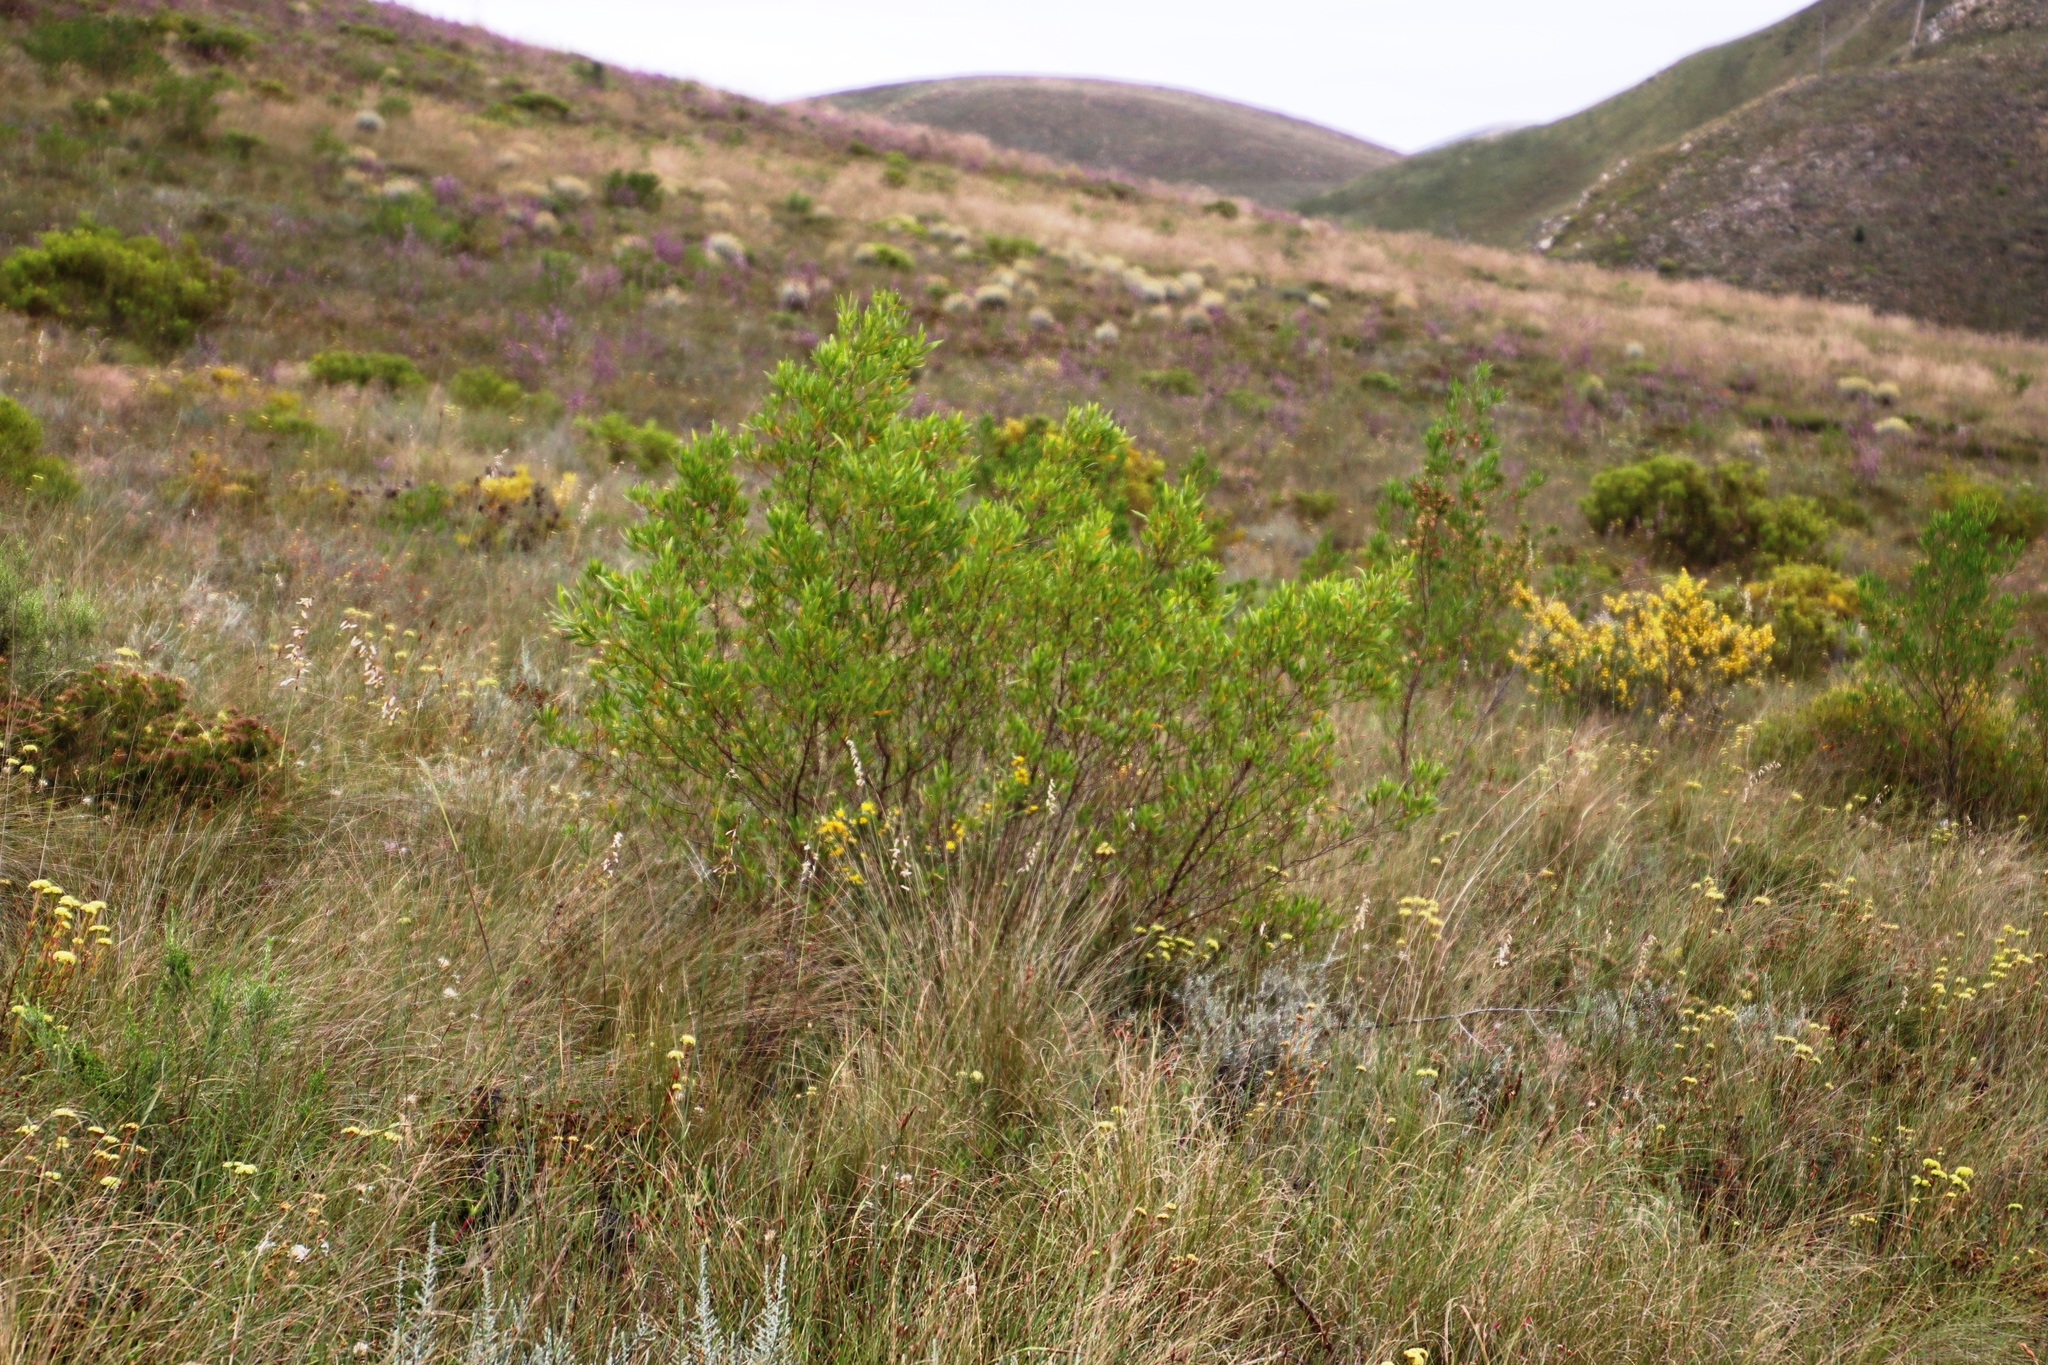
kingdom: Plantae
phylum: Tracheophyta
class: Magnoliopsida
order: Sapindales
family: Sapindaceae
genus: Dodonaea
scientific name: Dodonaea viscosa
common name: Hopbush
